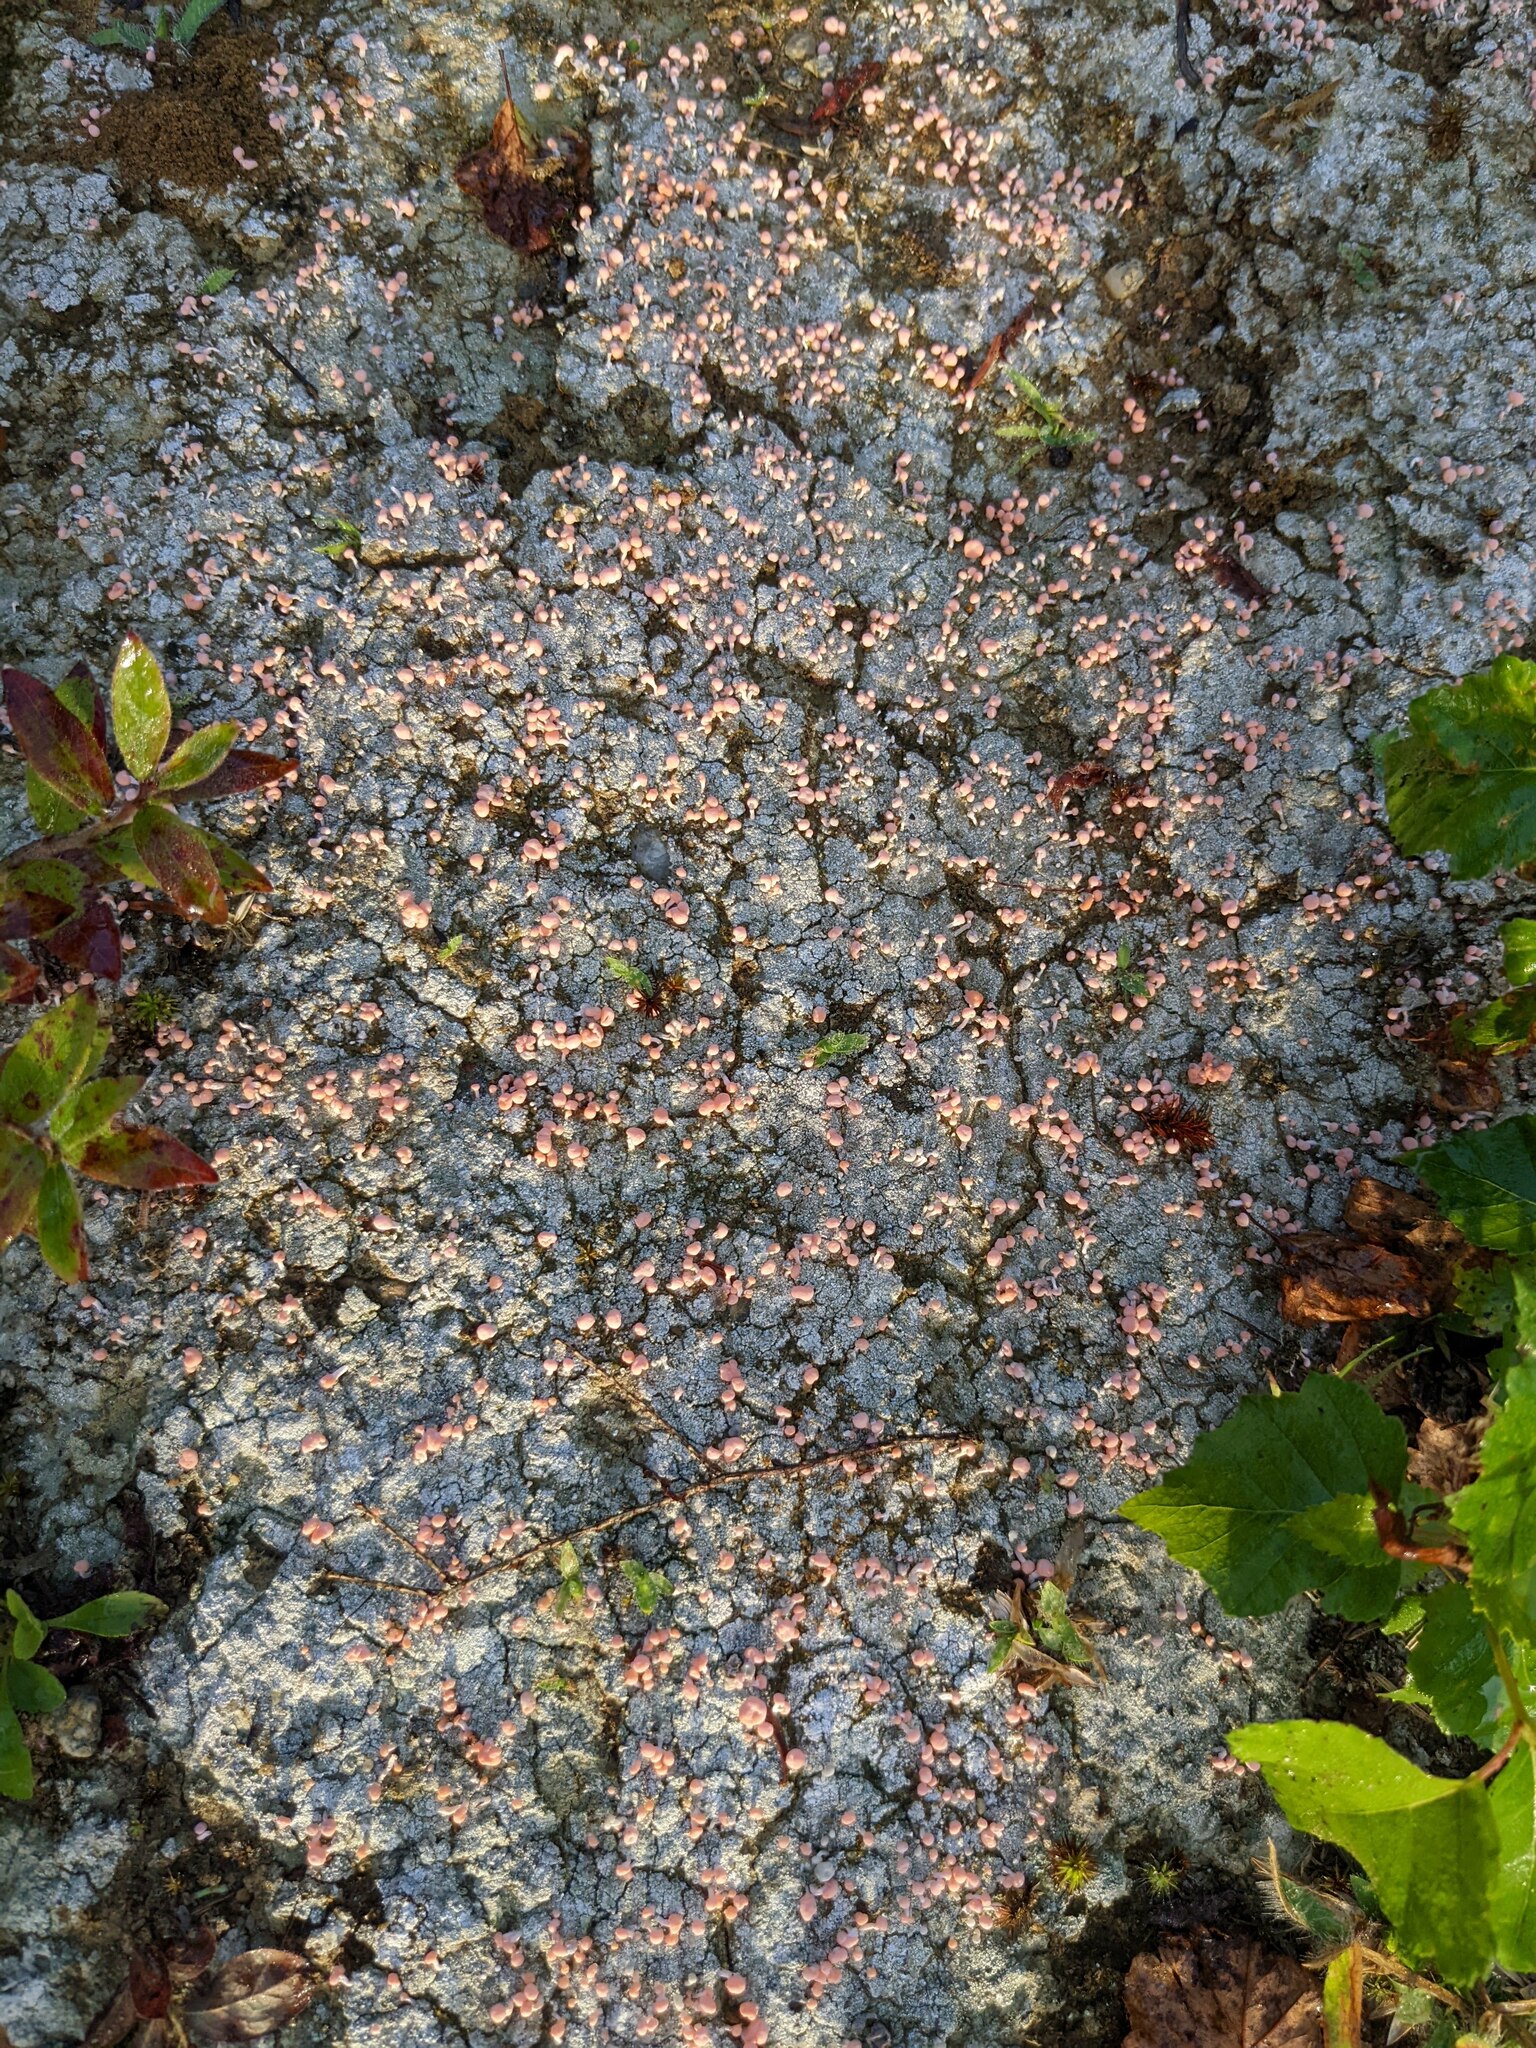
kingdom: Fungi
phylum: Ascomycota
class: Lecanoromycetes
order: Pertusariales
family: Icmadophilaceae
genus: Dibaeis
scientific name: Dibaeis baeomyces
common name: Pink earth lichen
